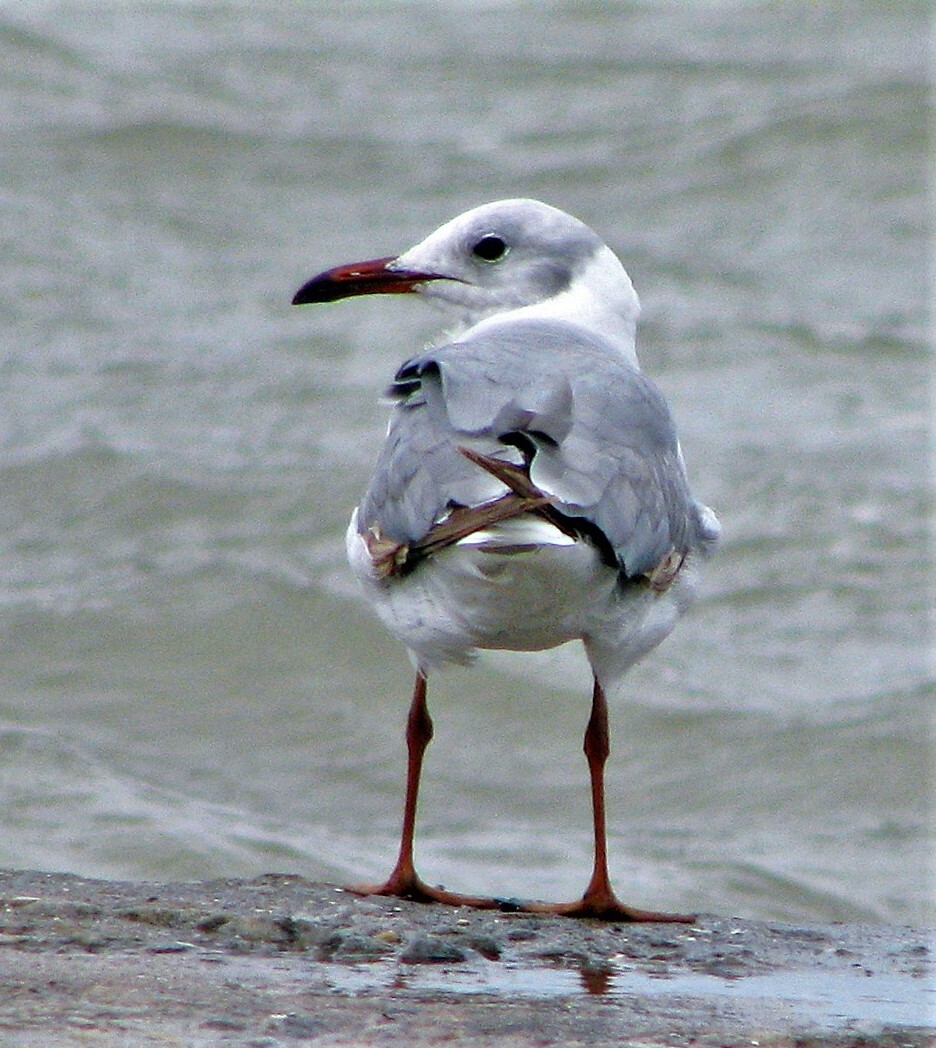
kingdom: Animalia
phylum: Chordata
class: Aves
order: Charadriiformes
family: Laridae
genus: Chroicocephalus
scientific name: Chroicocephalus cirrocephalus
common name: Grey-headed gull
